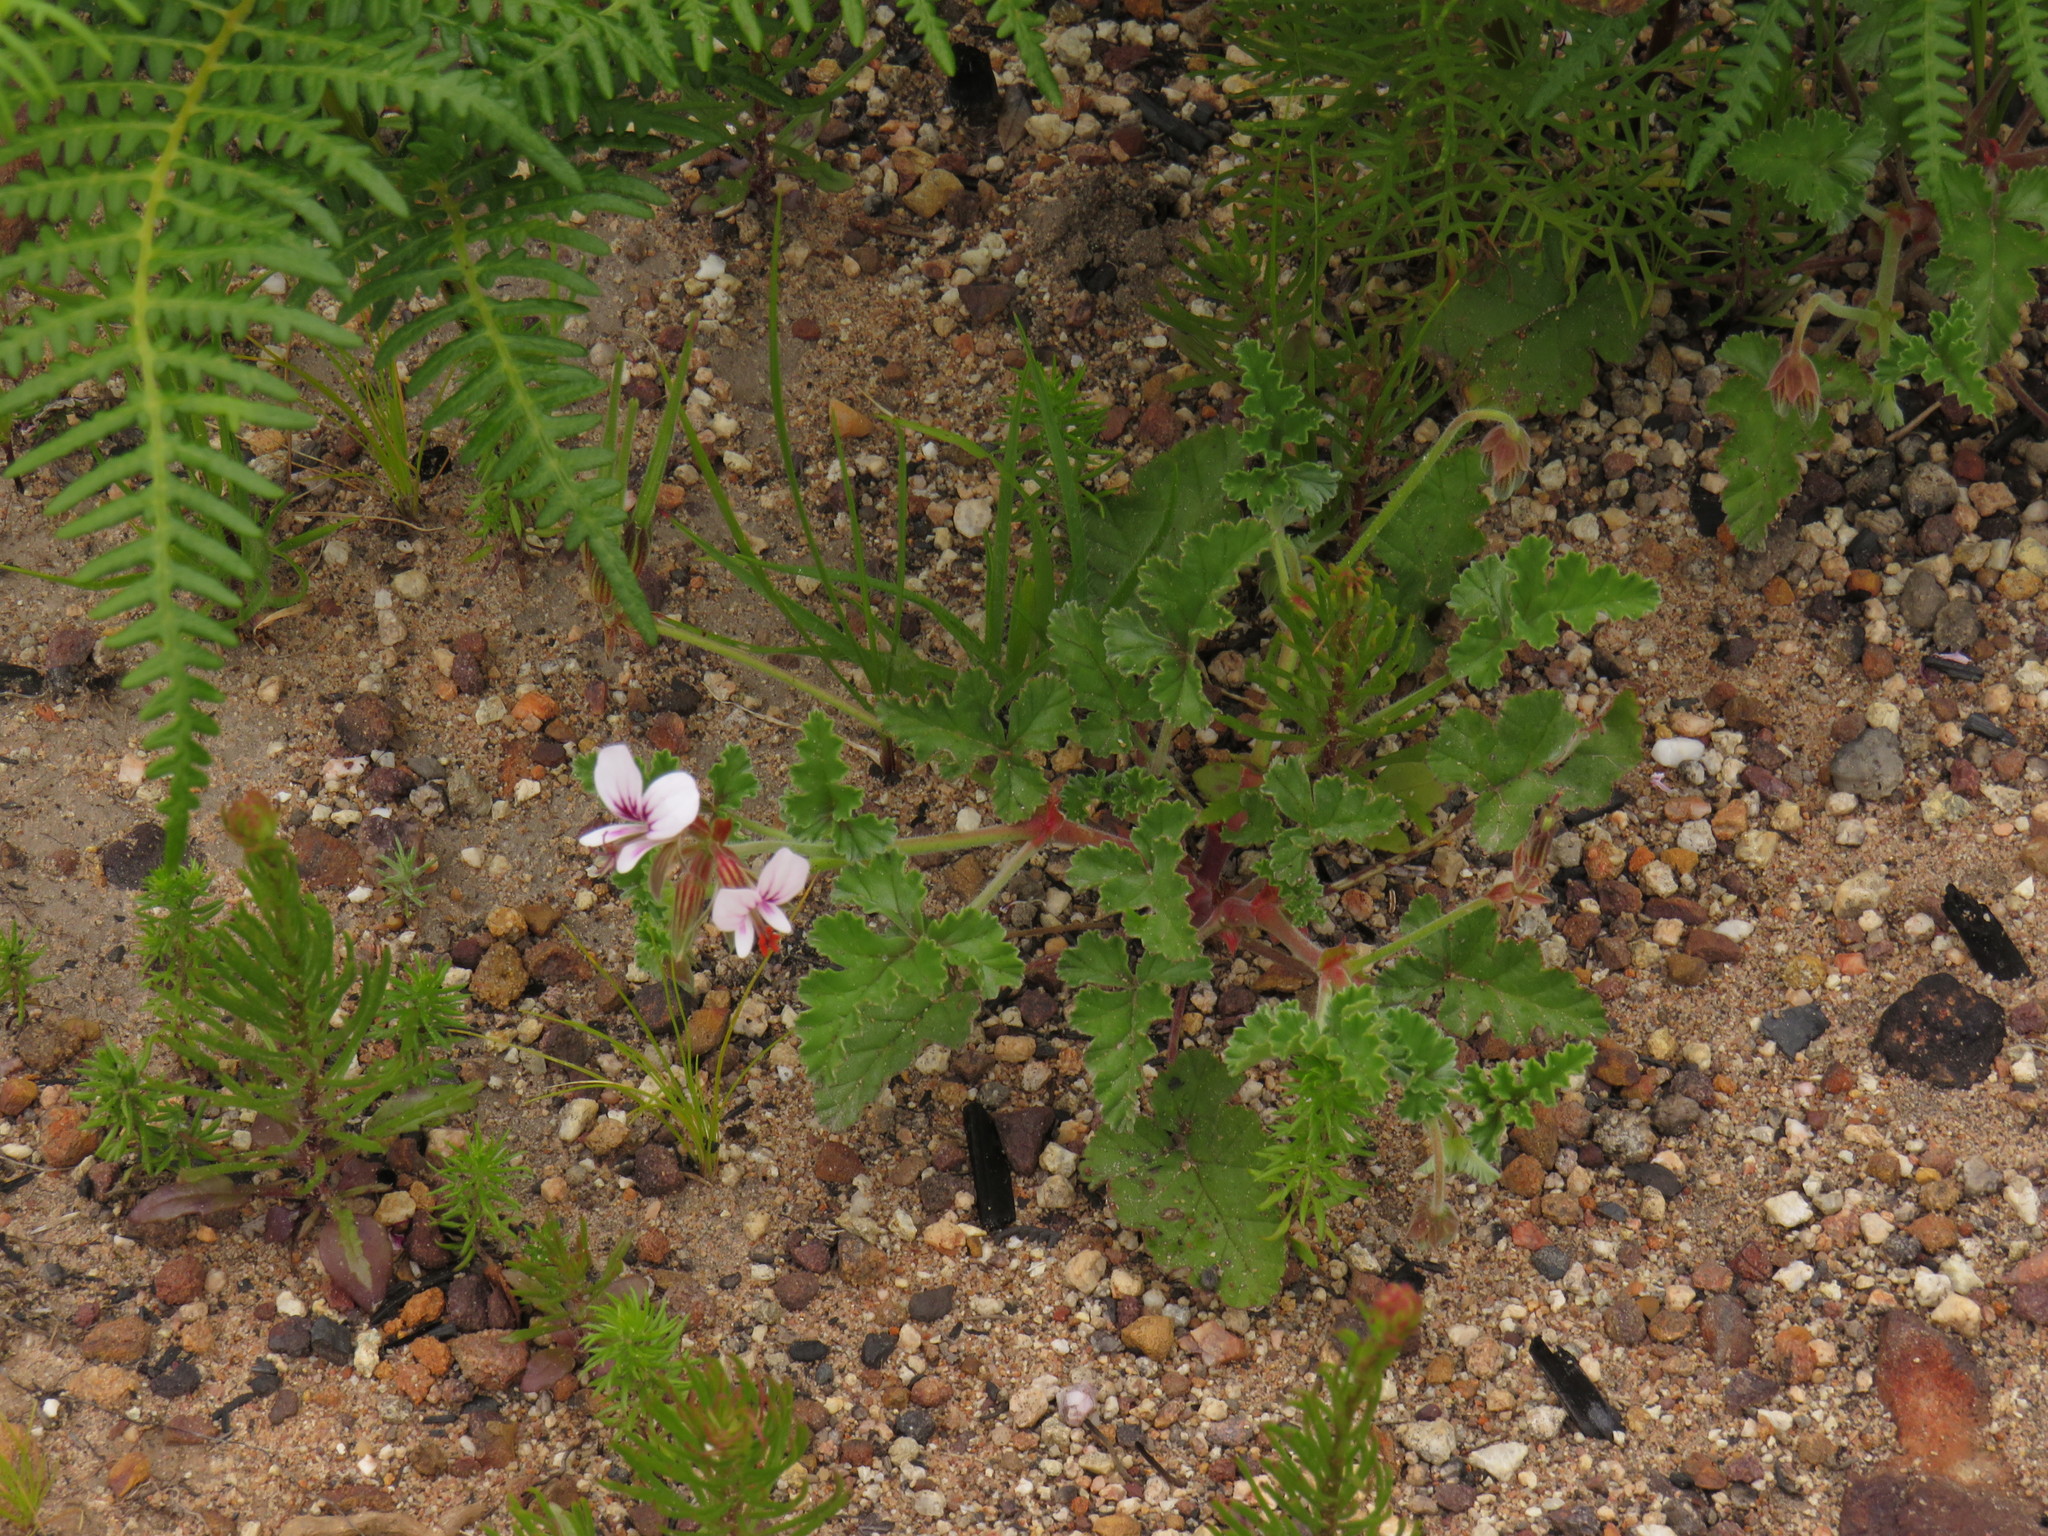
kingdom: Plantae
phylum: Tracheophyta
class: Magnoliopsida
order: Geraniales
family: Geraniaceae
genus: Pelargonium
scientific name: Pelargonium candicans
